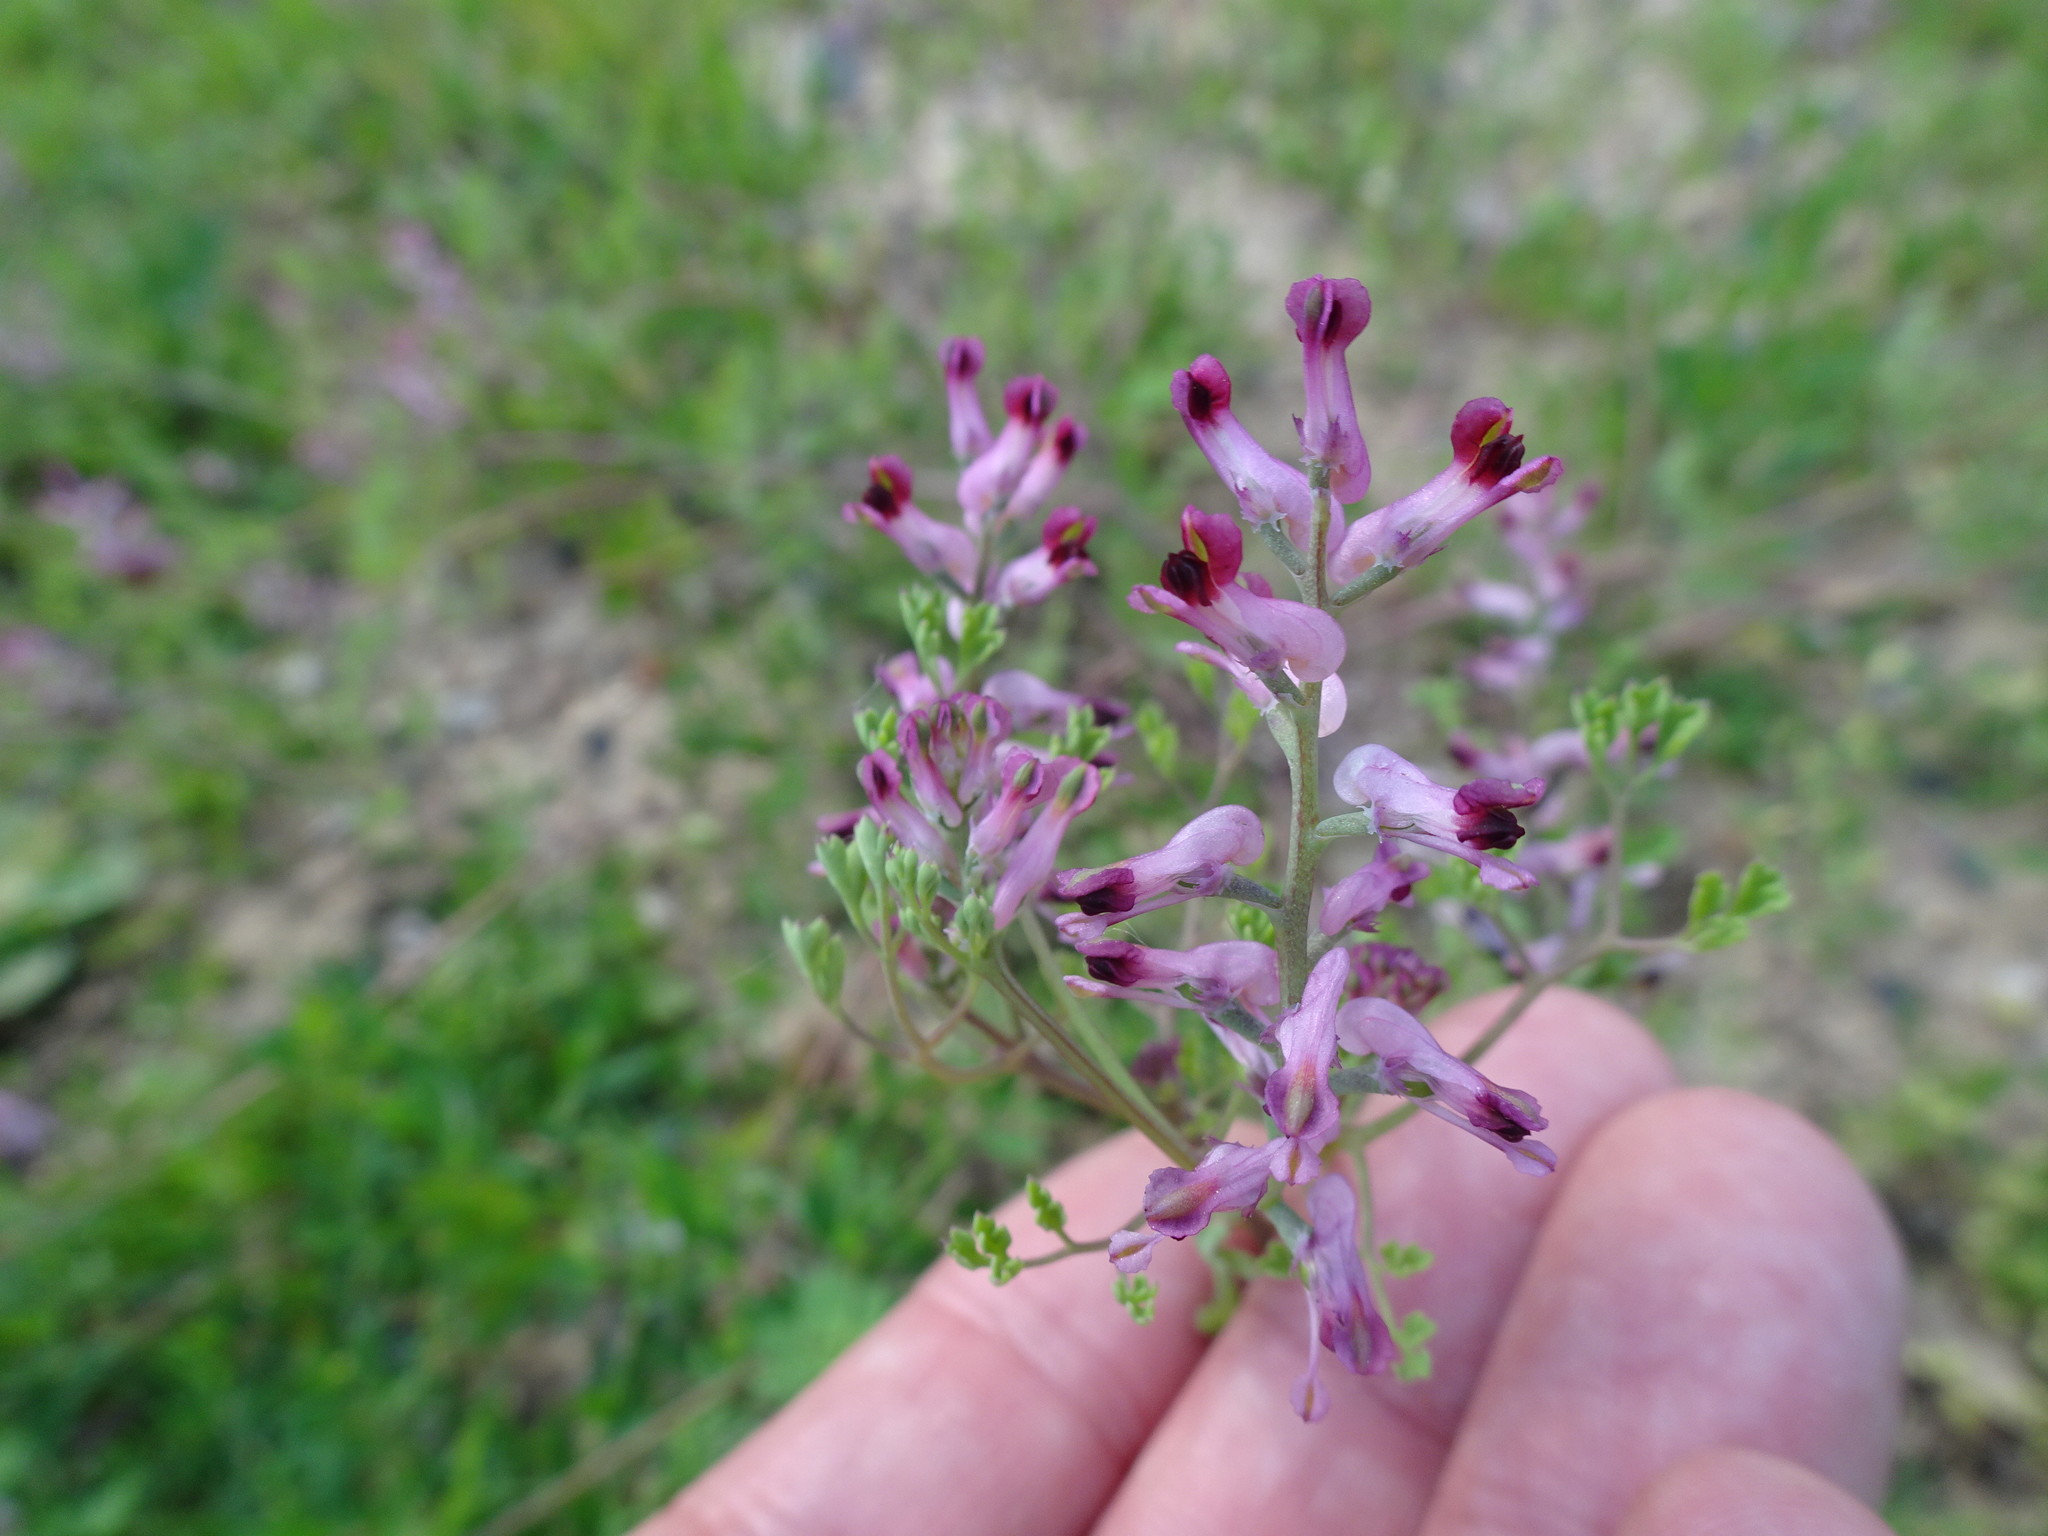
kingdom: Plantae
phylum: Tracheophyta
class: Magnoliopsida
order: Ranunculales
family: Papaveraceae
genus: Fumaria
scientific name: Fumaria wirtgenii
